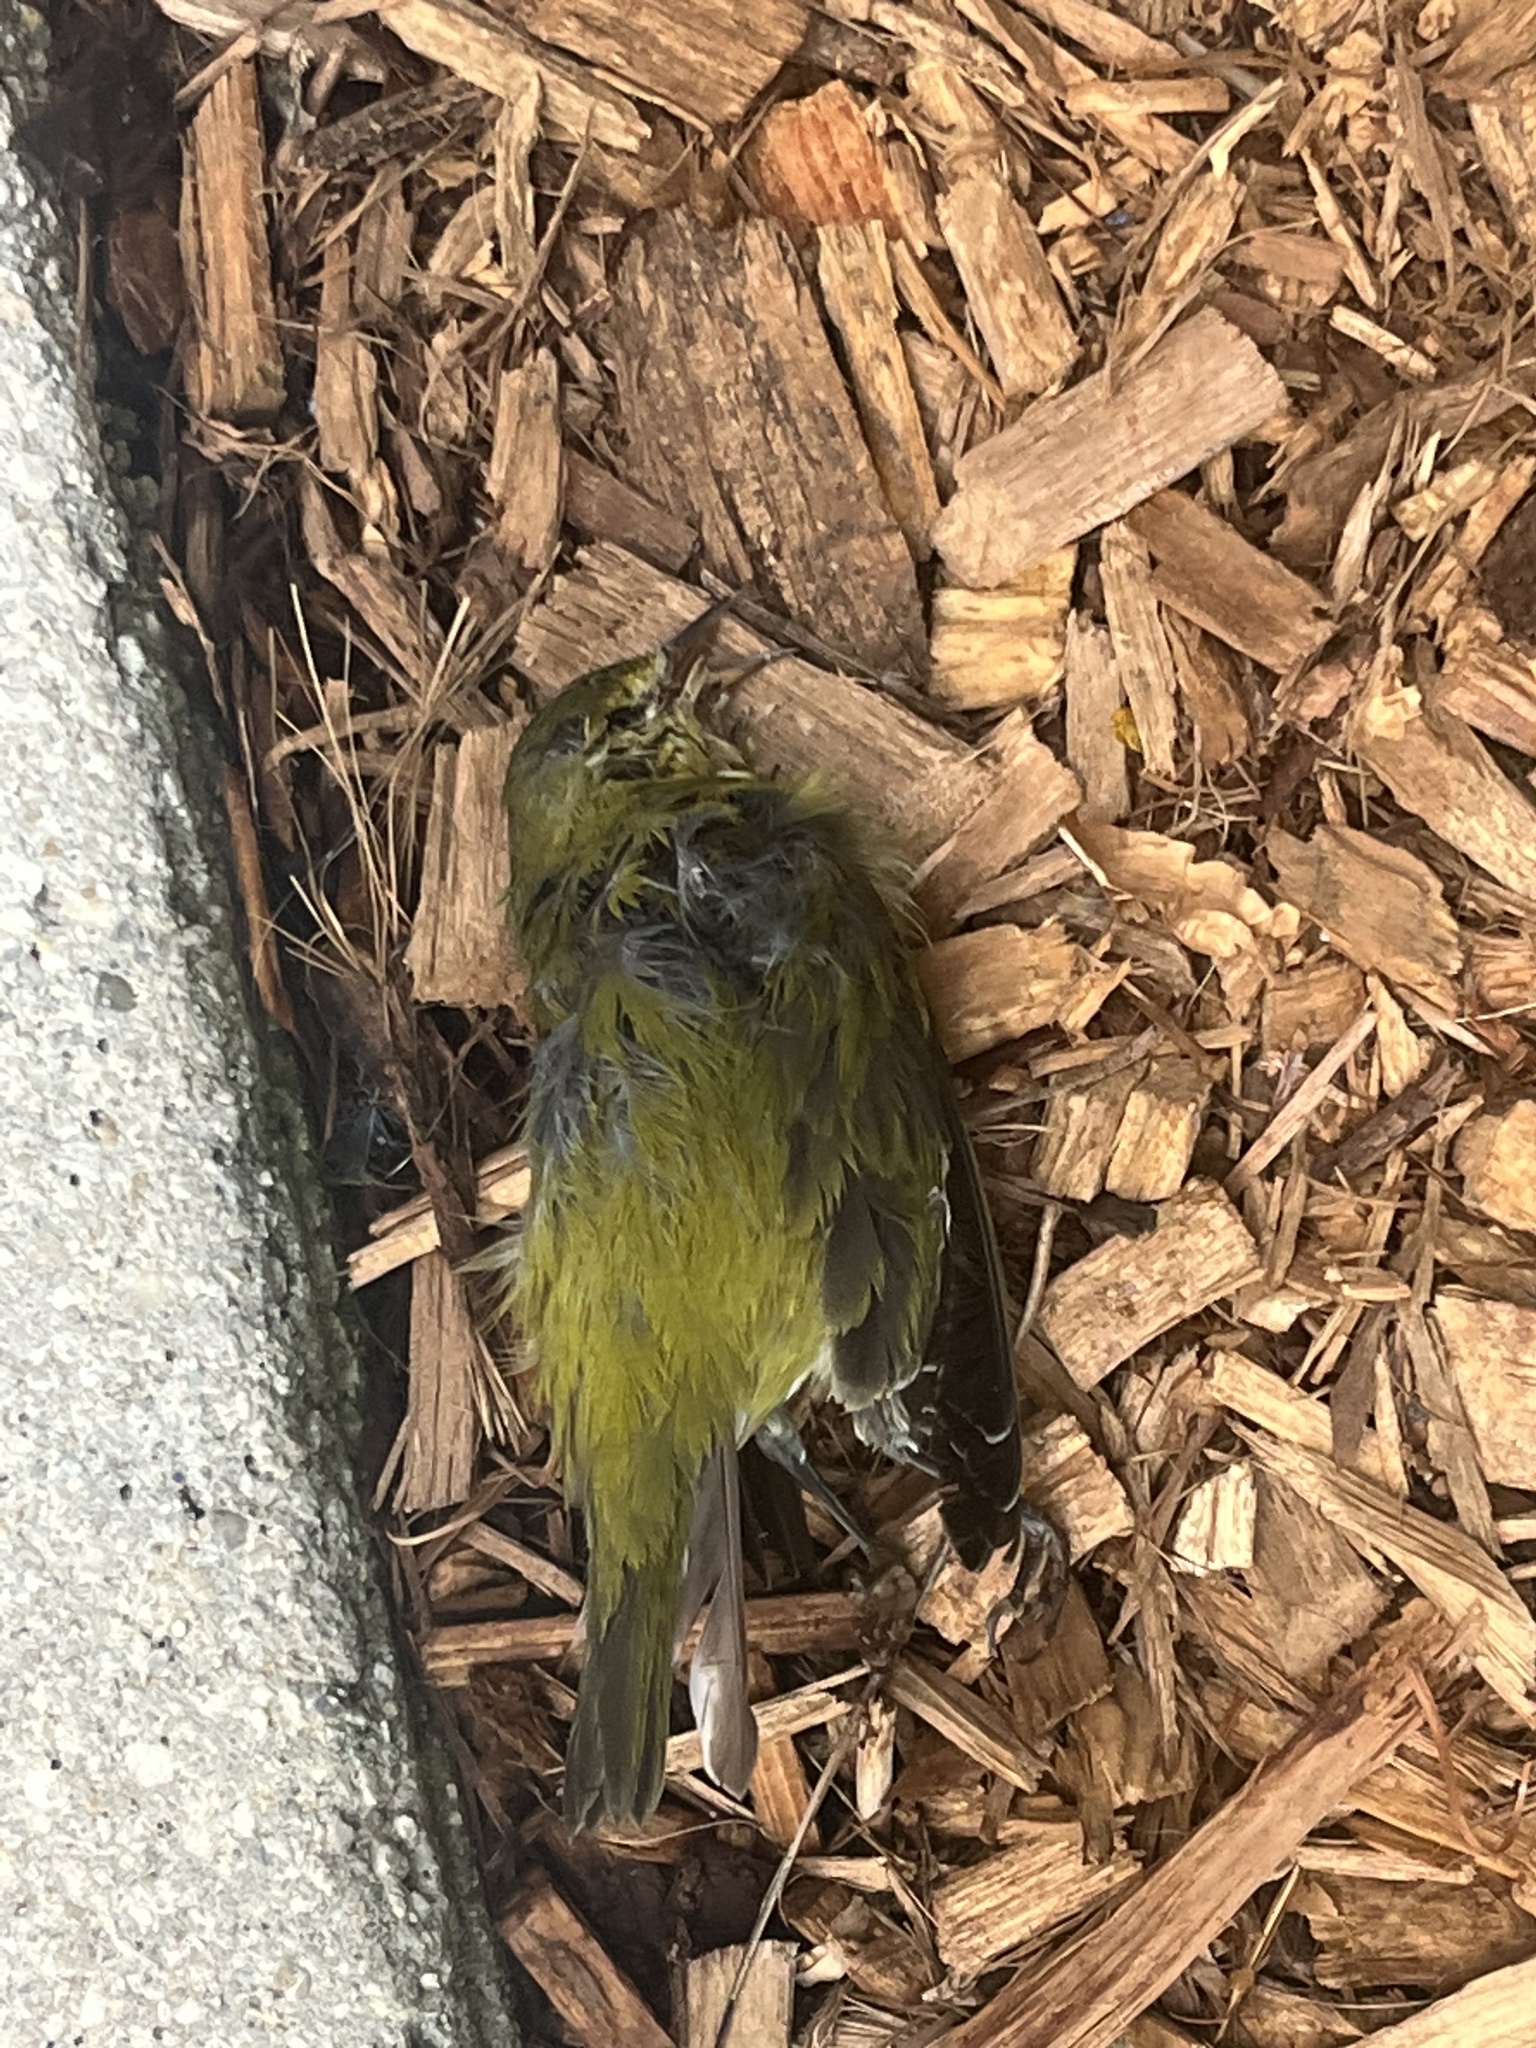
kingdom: Animalia
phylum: Chordata
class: Aves
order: Passeriformes
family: Parulidae
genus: Leiothlypis
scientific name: Leiothlypis peregrina
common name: Tennessee warbler
